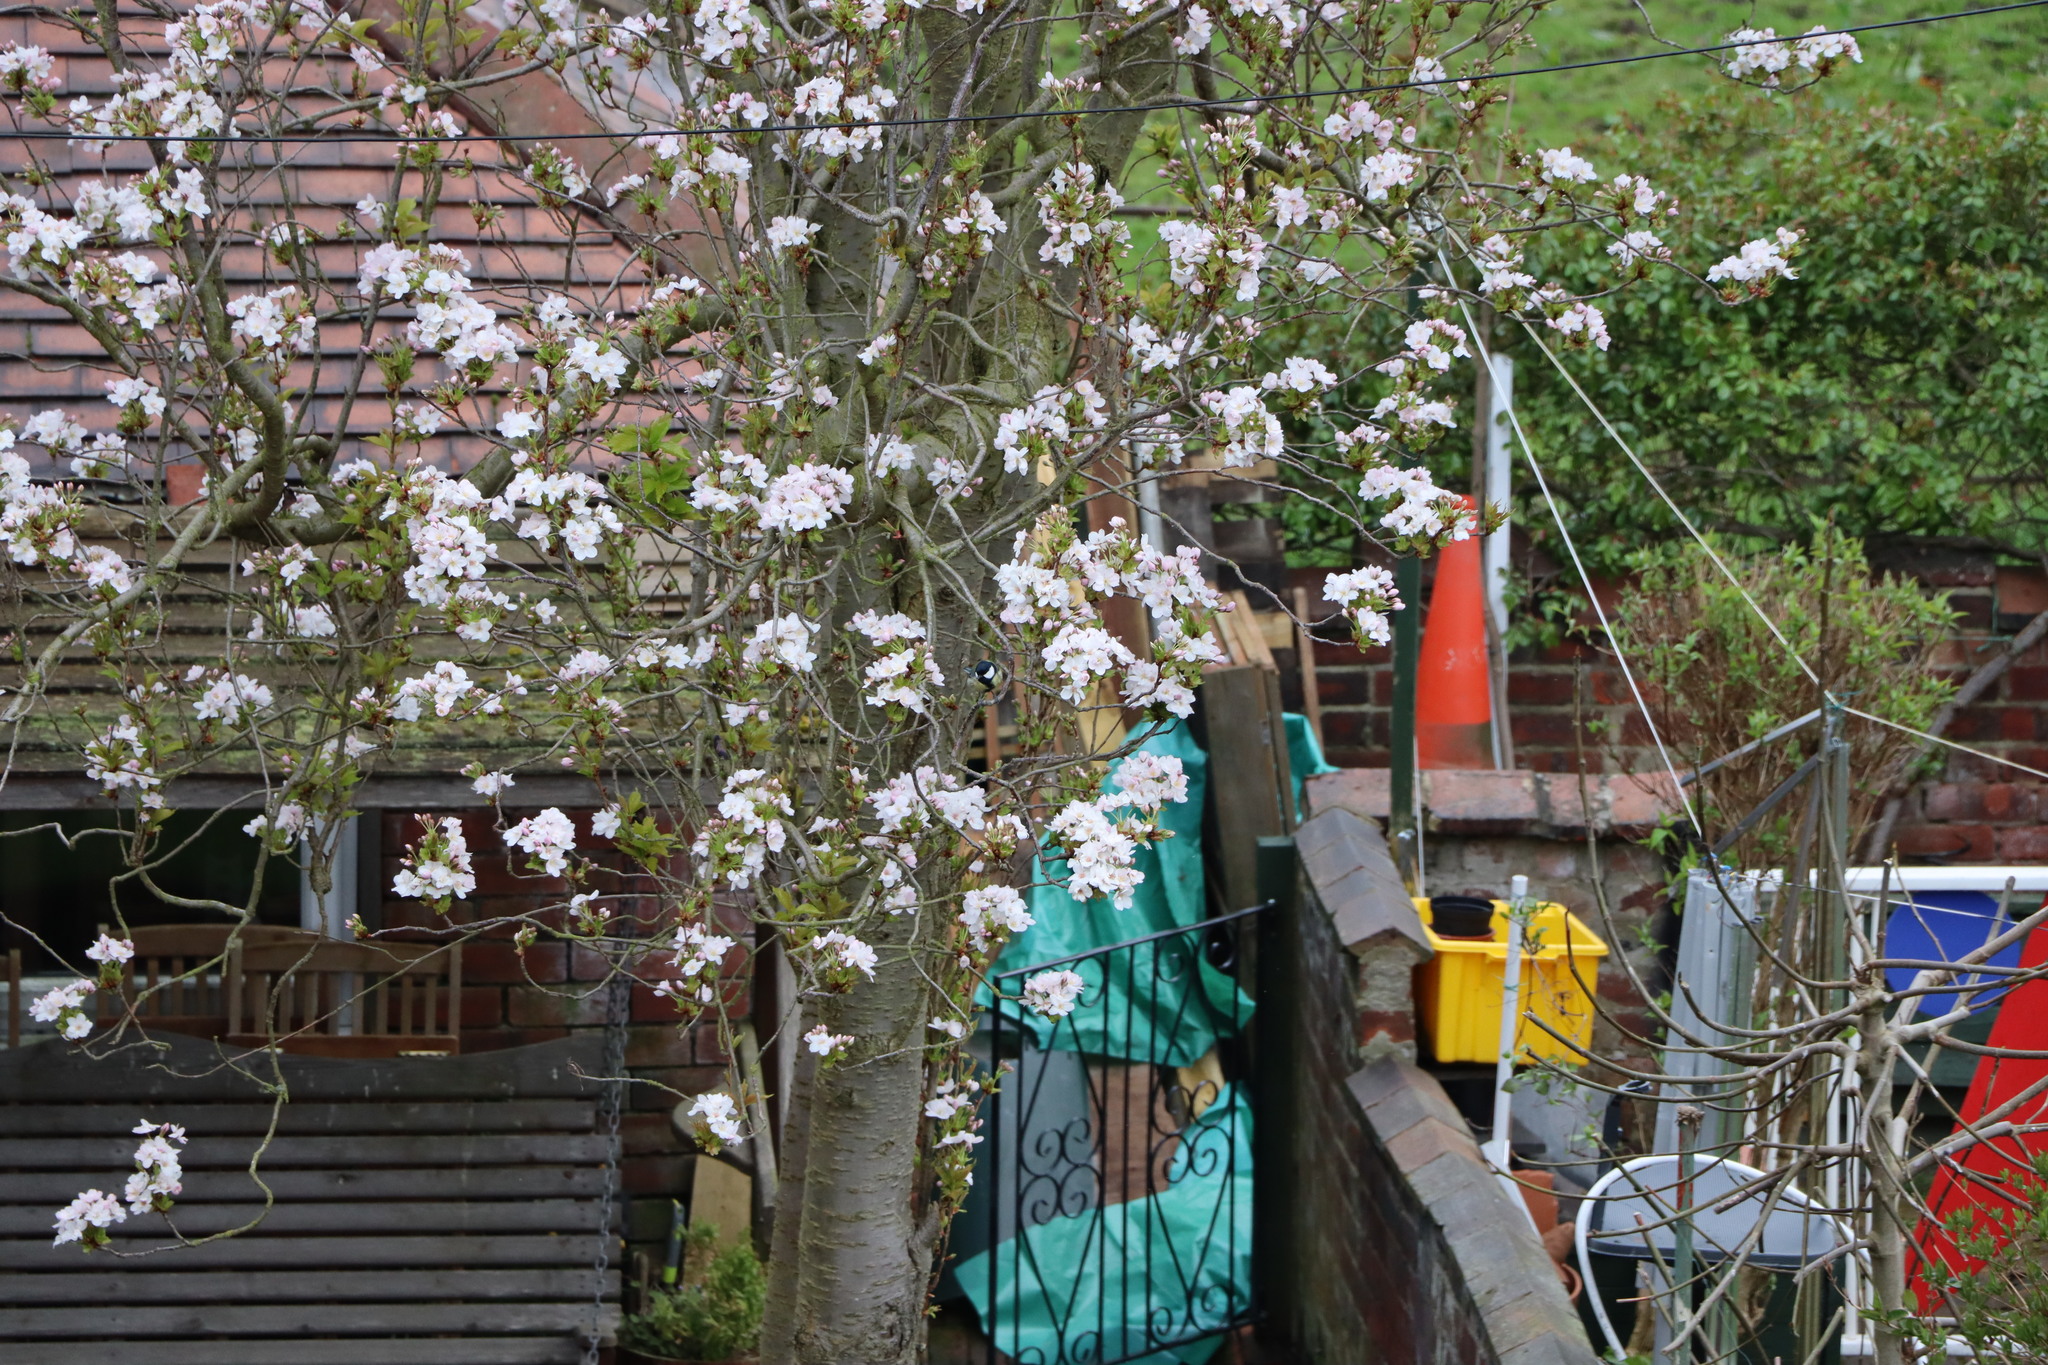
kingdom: Animalia
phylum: Chordata
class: Aves
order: Passeriformes
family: Paridae
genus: Parus
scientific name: Parus major
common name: Great tit
